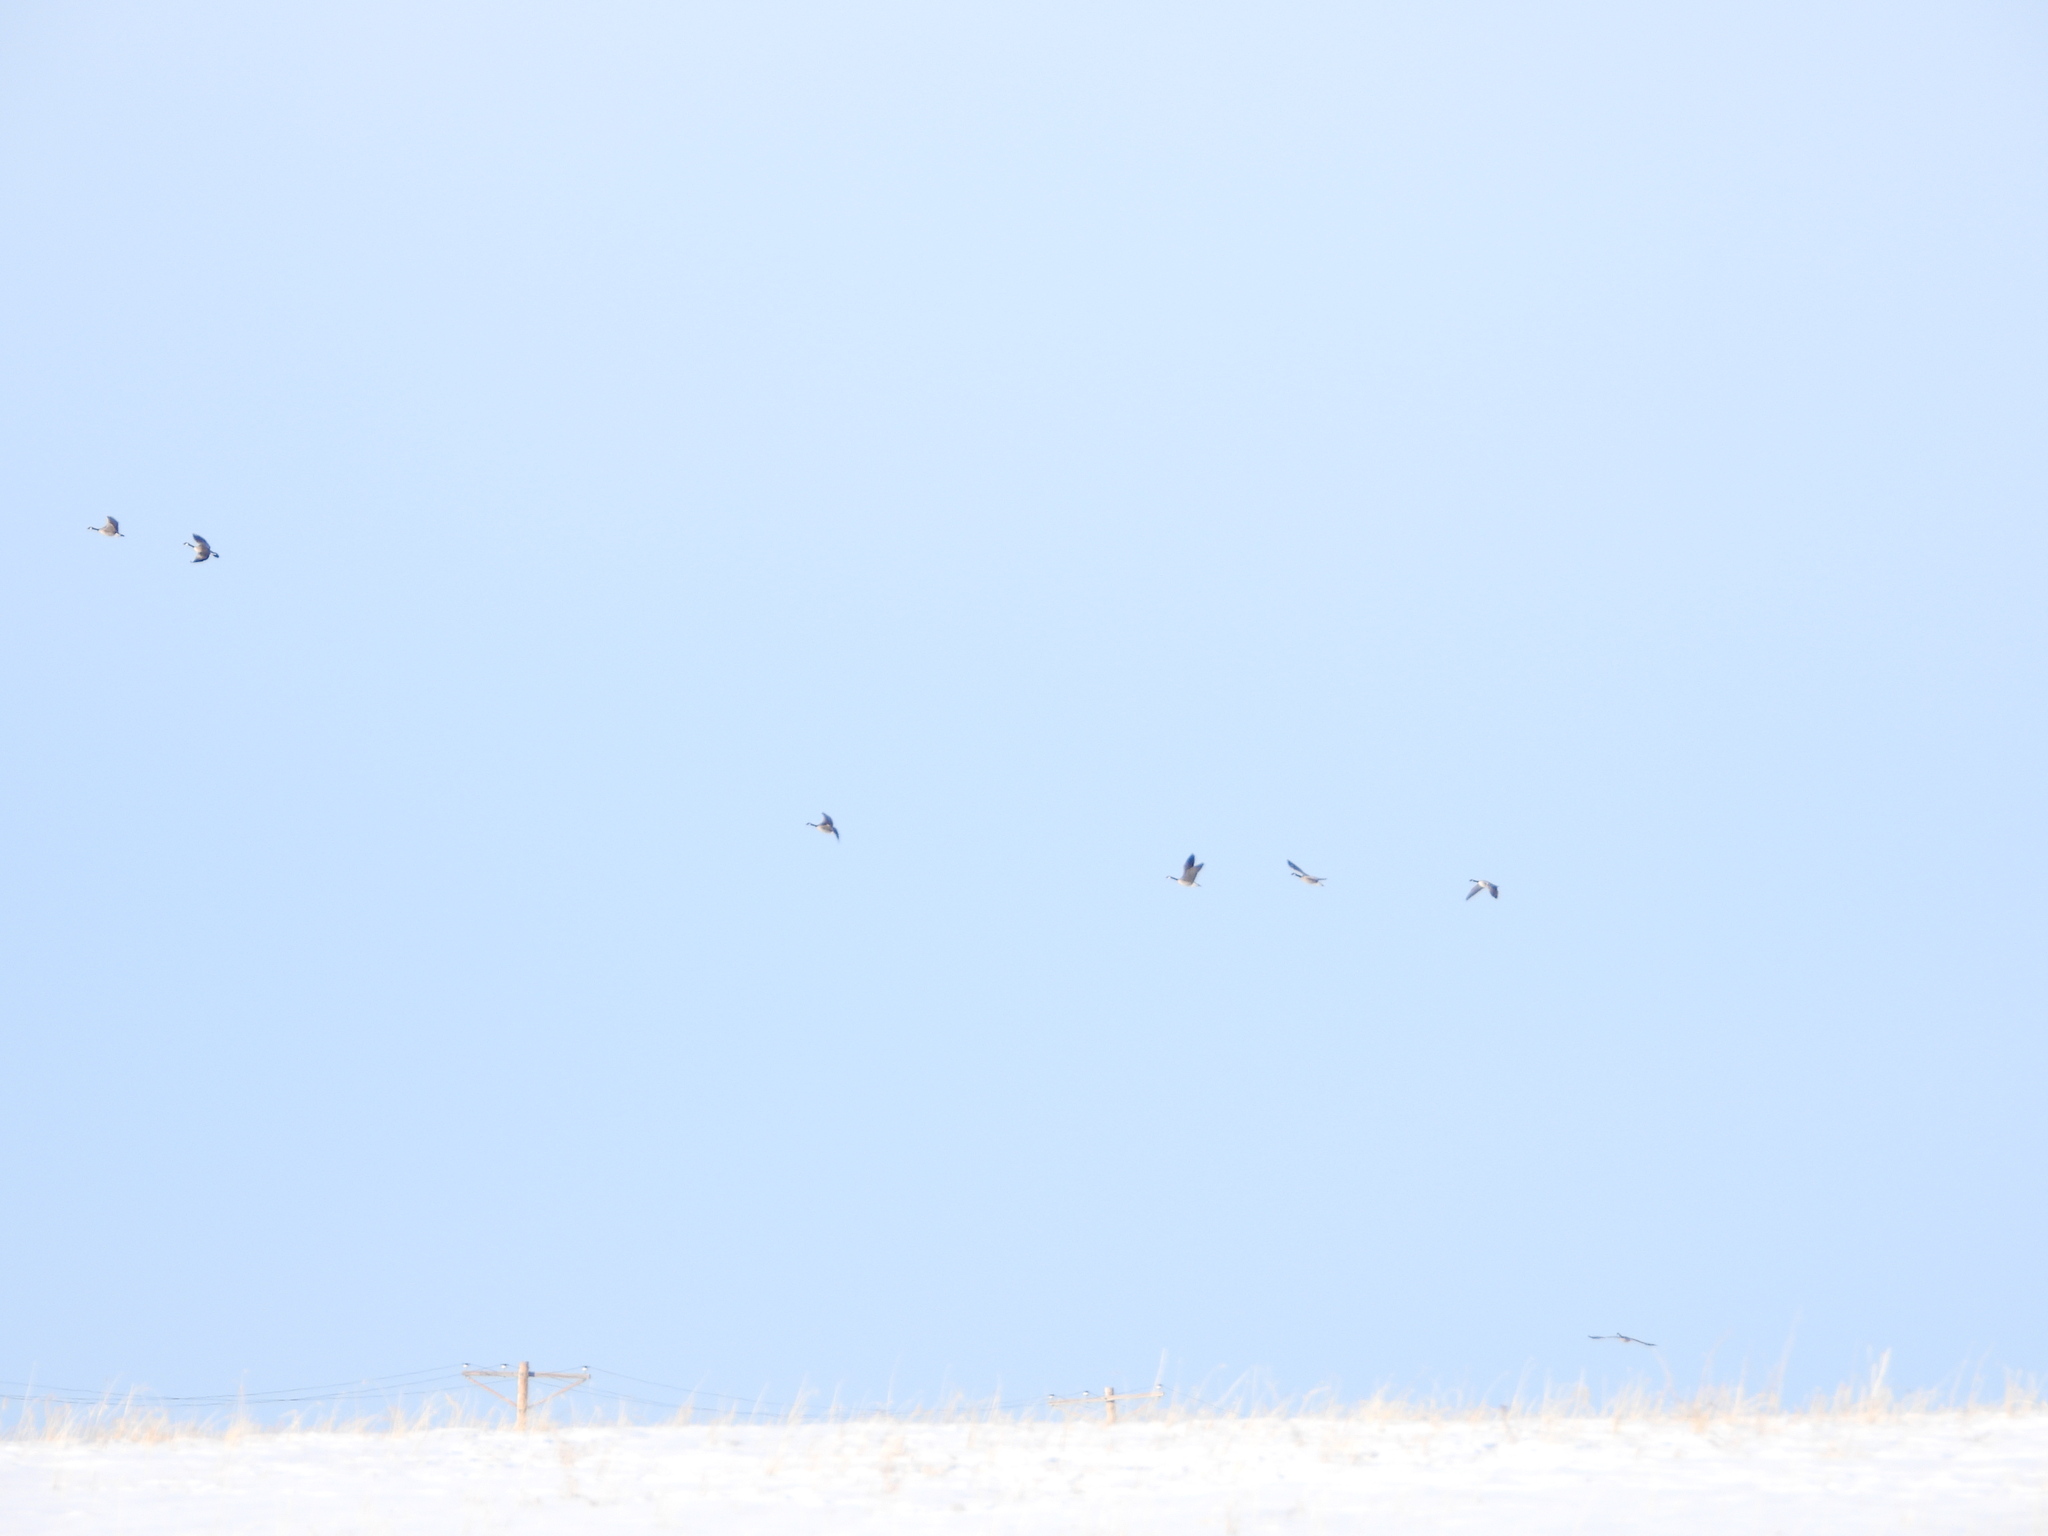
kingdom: Animalia
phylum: Chordata
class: Aves
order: Anseriformes
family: Anatidae
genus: Branta
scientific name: Branta hutchinsii
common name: Cackling goose
